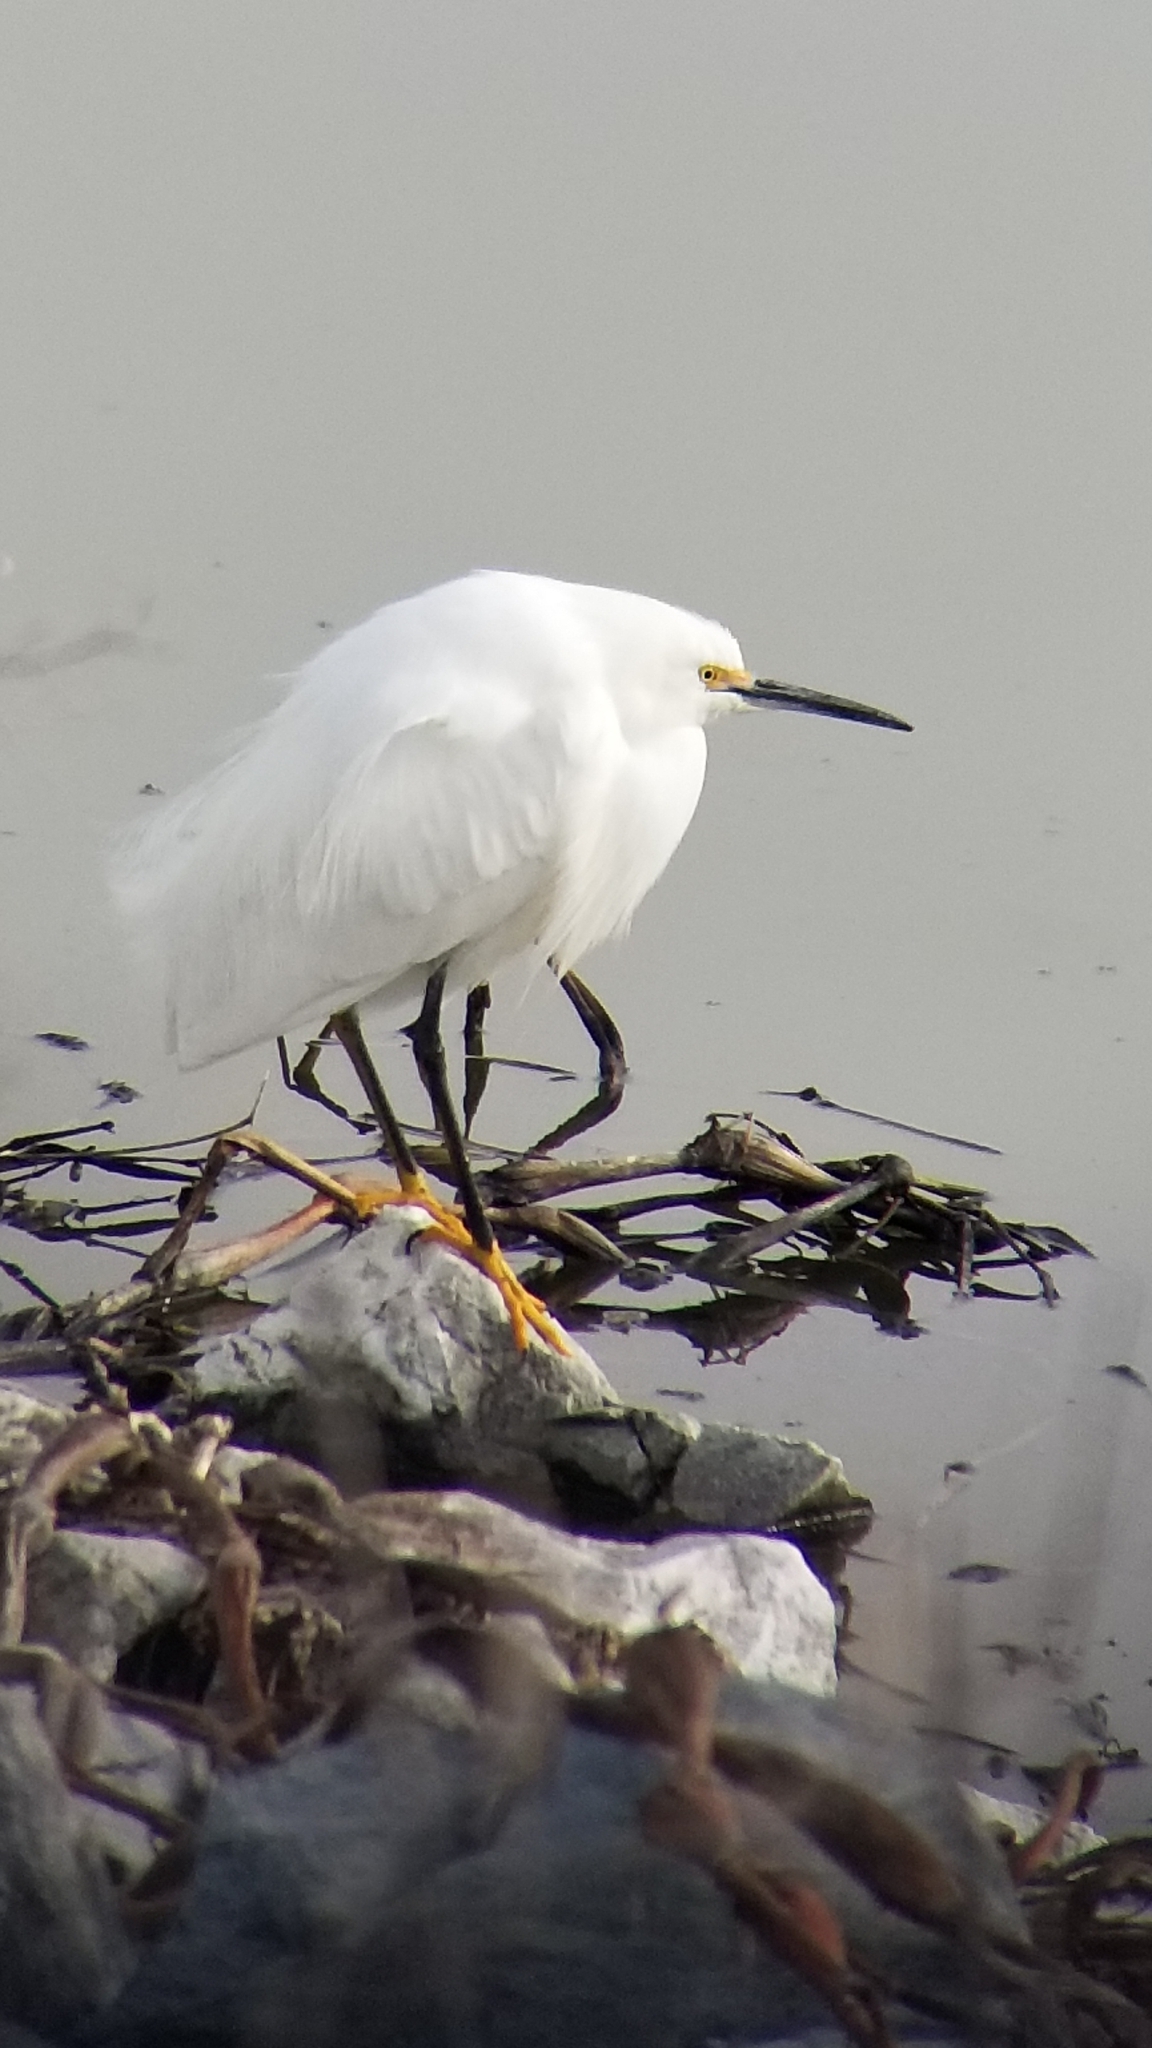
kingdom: Animalia
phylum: Chordata
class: Aves
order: Pelecaniformes
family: Ardeidae
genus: Egretta
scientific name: Egretta thula
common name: Snowy egret
